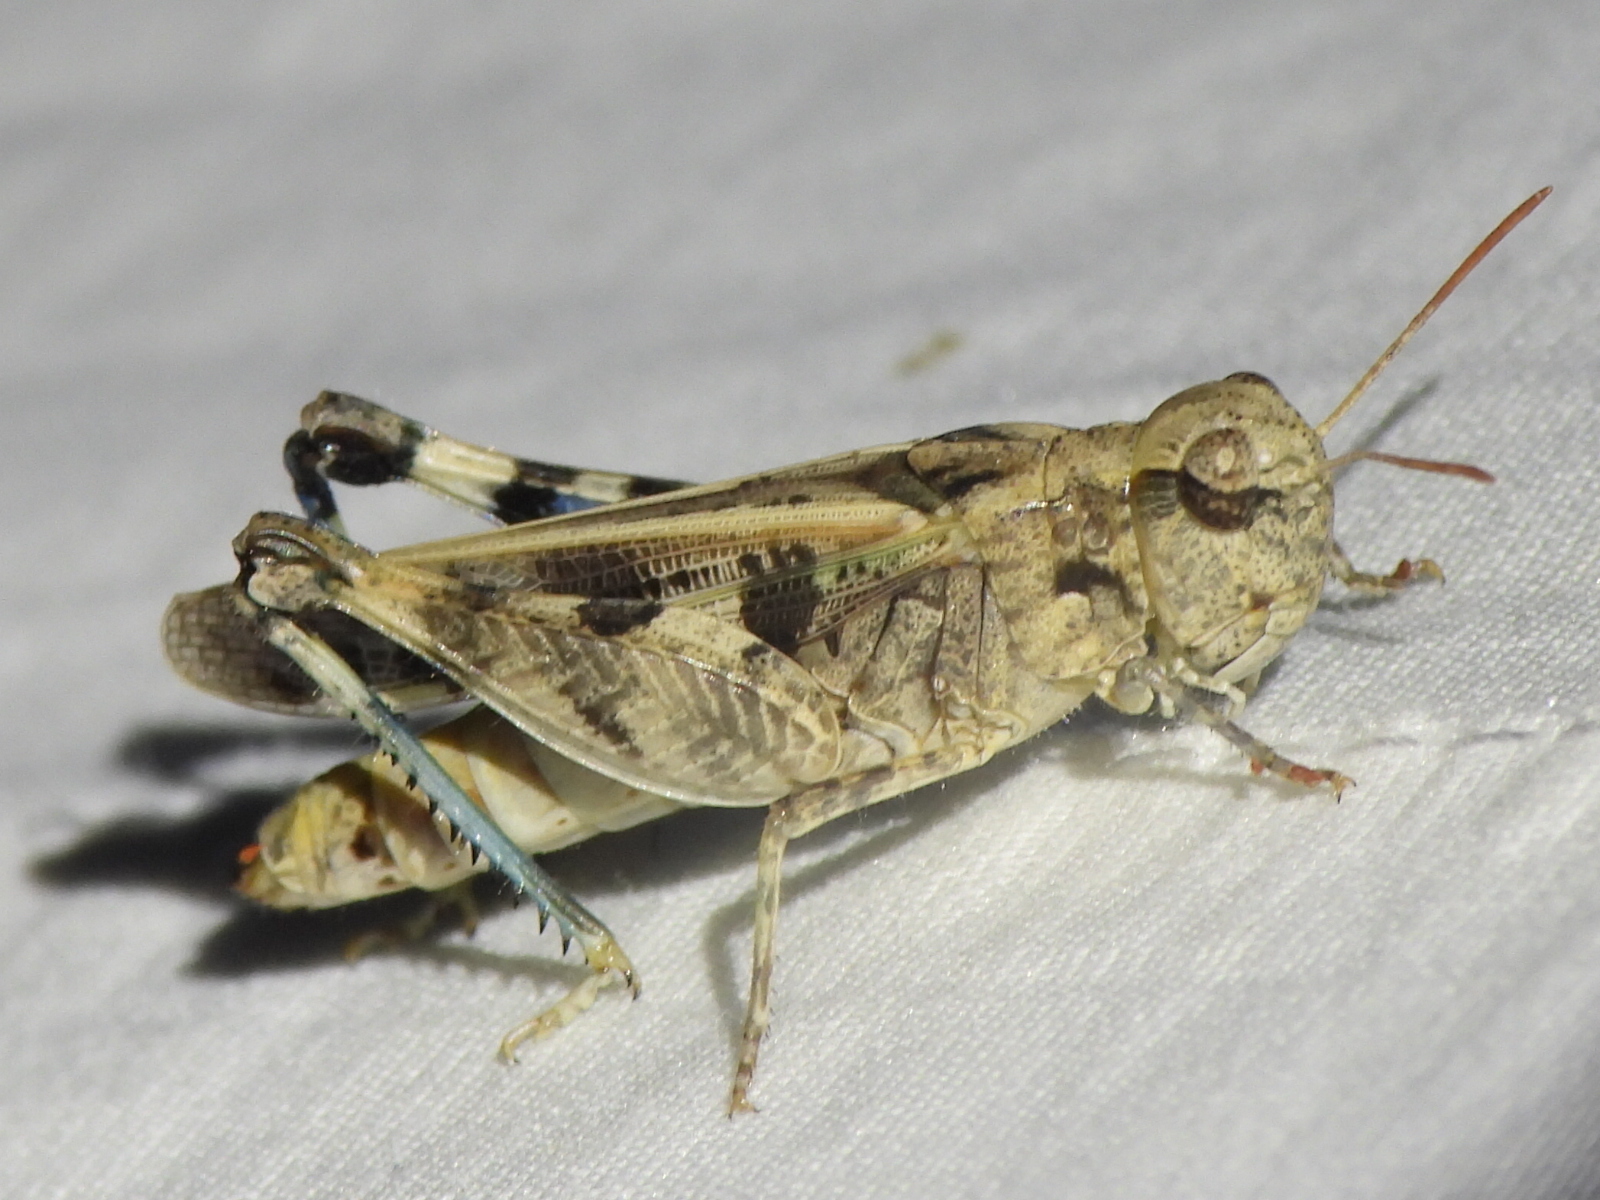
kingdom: Animalia
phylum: Arthropoda
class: Insecta
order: Orthoptera
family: Acrididae
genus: Encoptolophus
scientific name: Encoptolophus costalis
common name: Dusky grasshopper
